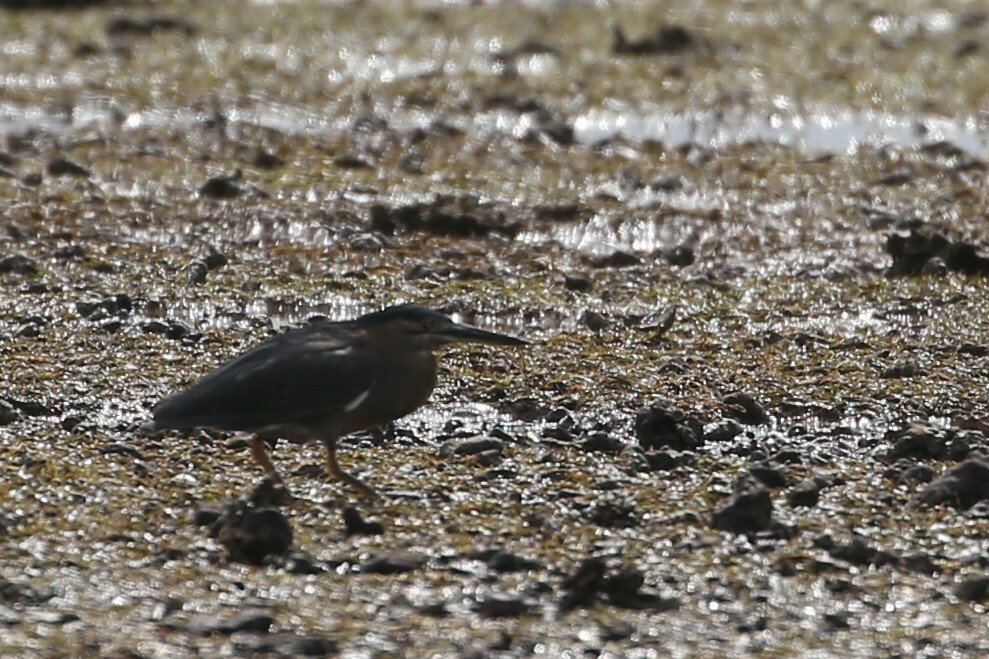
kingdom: Animalia
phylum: Chordata
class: Aves
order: Pelecaniformes
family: Ardeidae
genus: Butorides
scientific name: Butorides striata
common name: Striated heron
